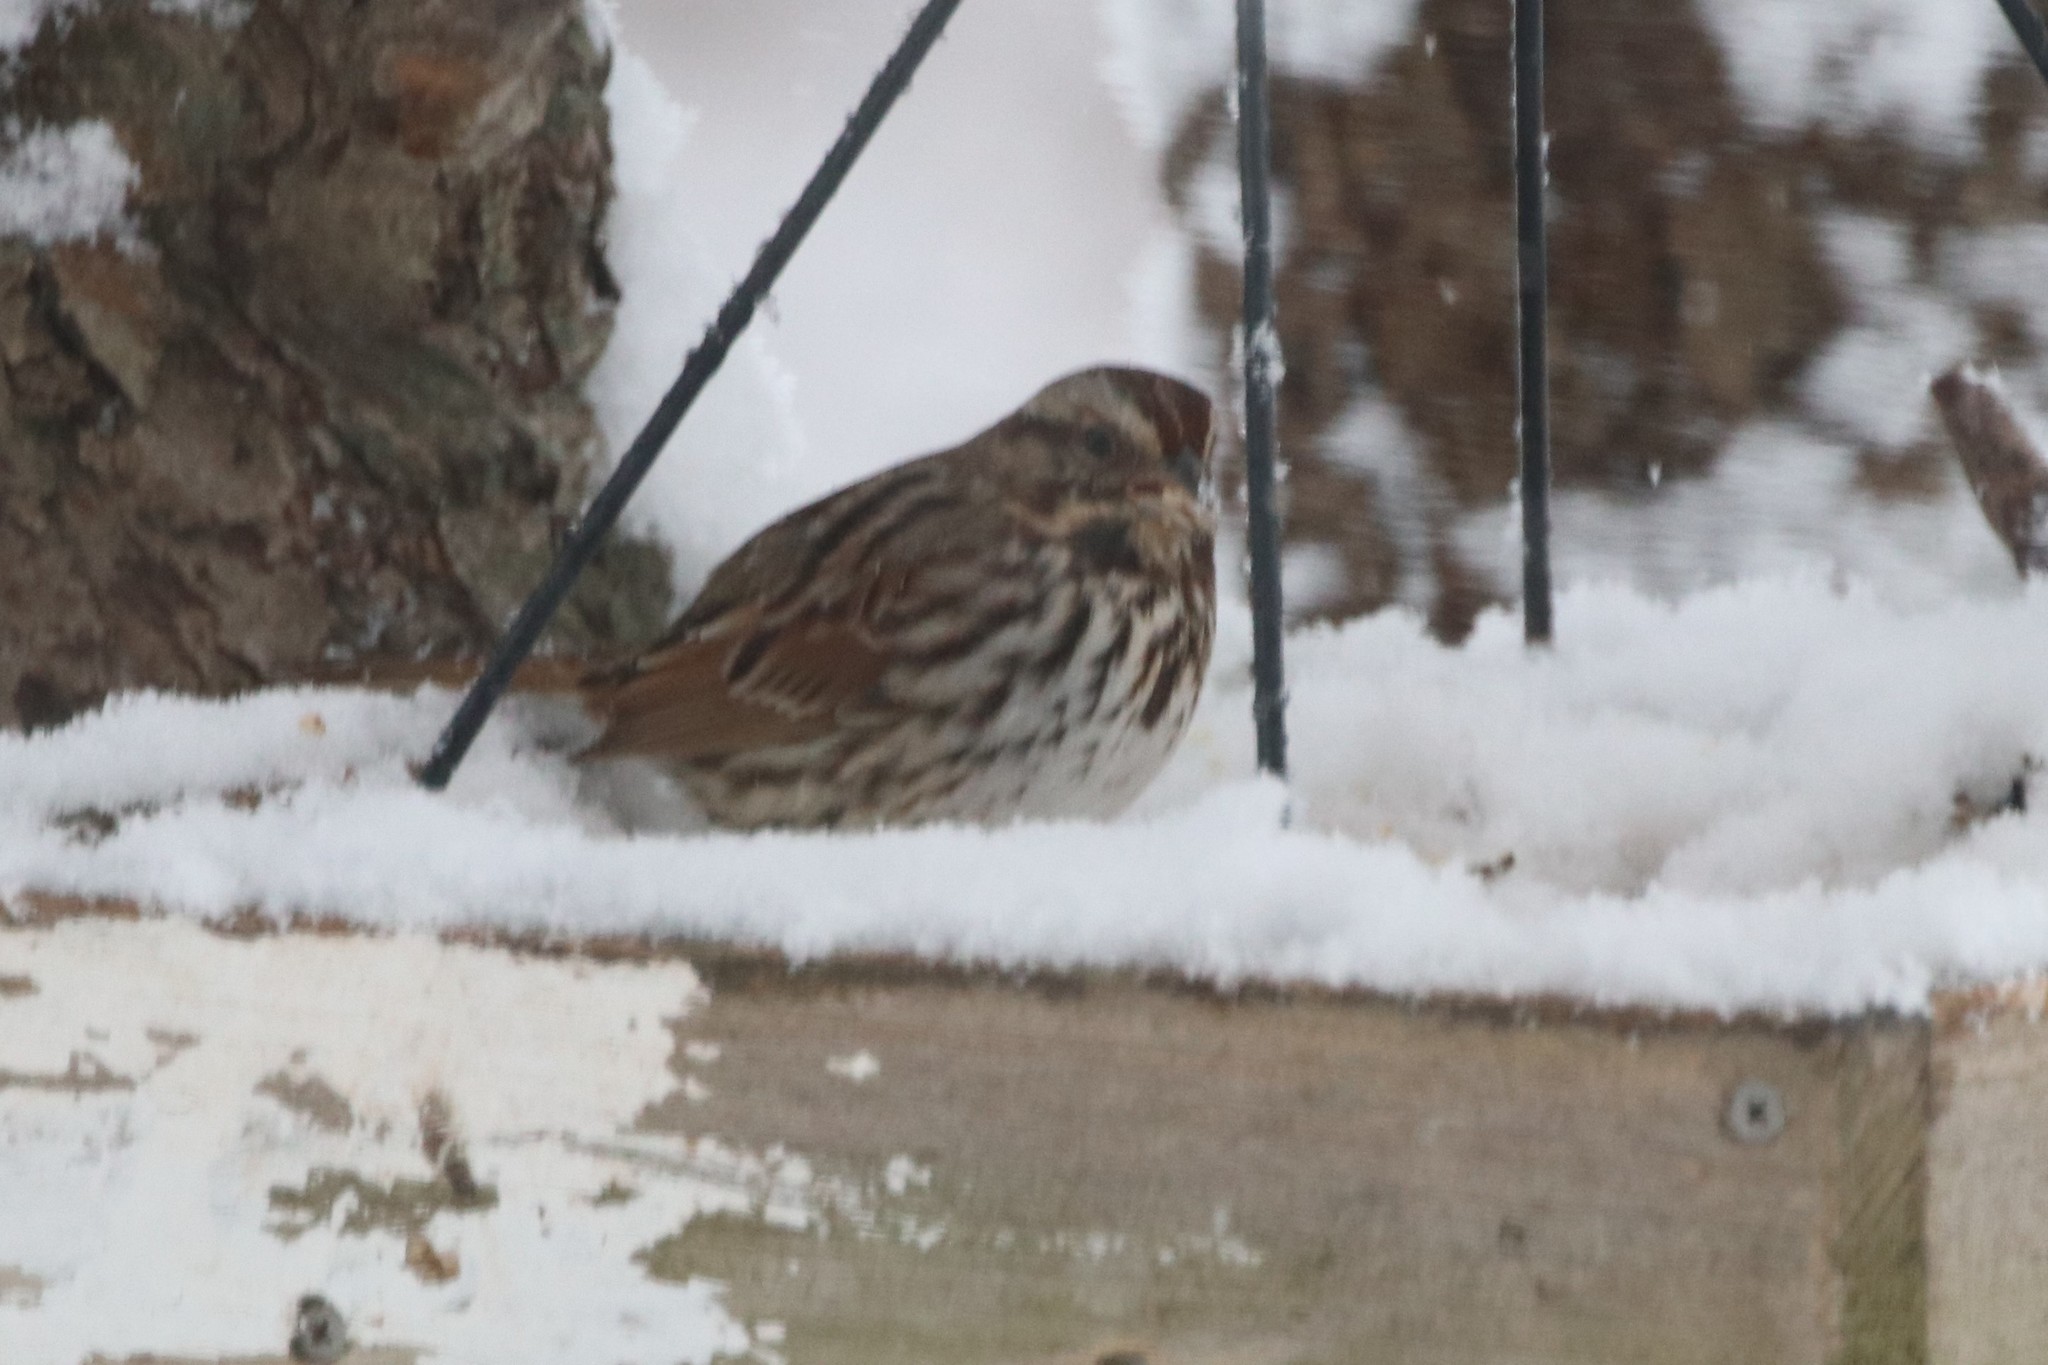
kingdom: Animalia
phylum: Chordata
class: Aves
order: Passeriformes
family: Passerellidae
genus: Melospiza
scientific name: Melospiza melodia
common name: Song sparrow
